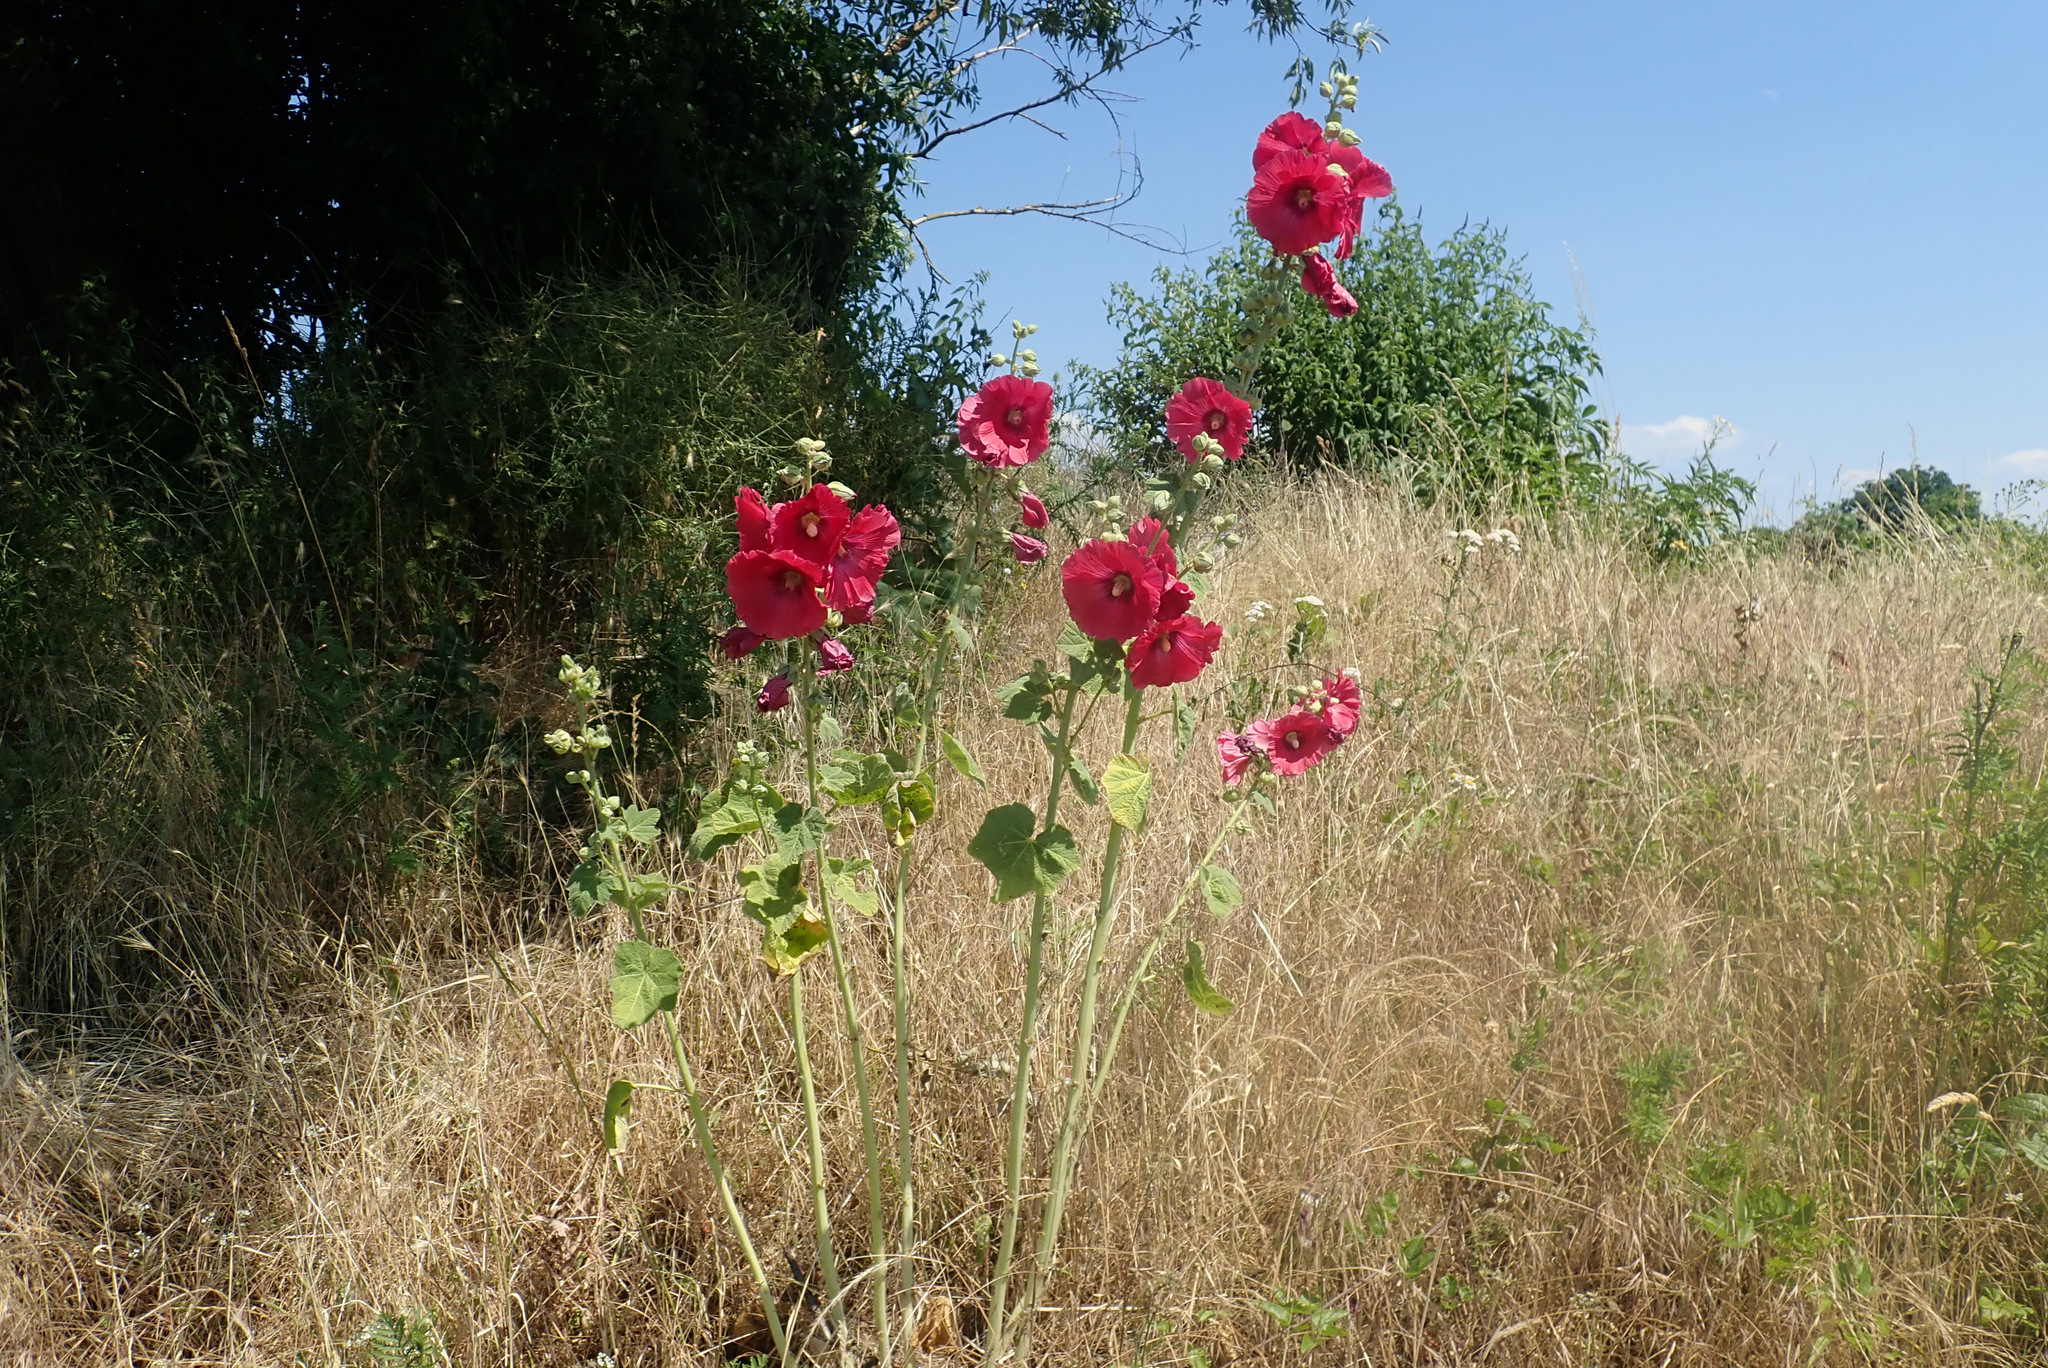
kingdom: Plantae
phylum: Tracheophyta
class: Magnoliopsida
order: Malvales
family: Malvaceae
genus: Alcea
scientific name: Alcea rosea
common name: Hollyhock
